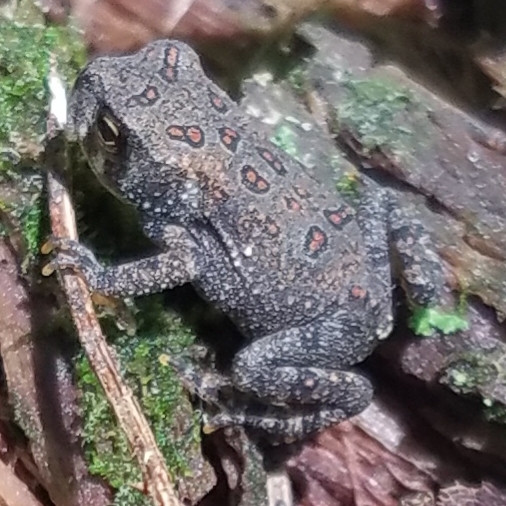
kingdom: Animalia
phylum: Chordata
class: Amphibia
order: Anura
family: Bufonidae
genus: Anaxyrus
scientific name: Anaxyrus americanus
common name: American toad
